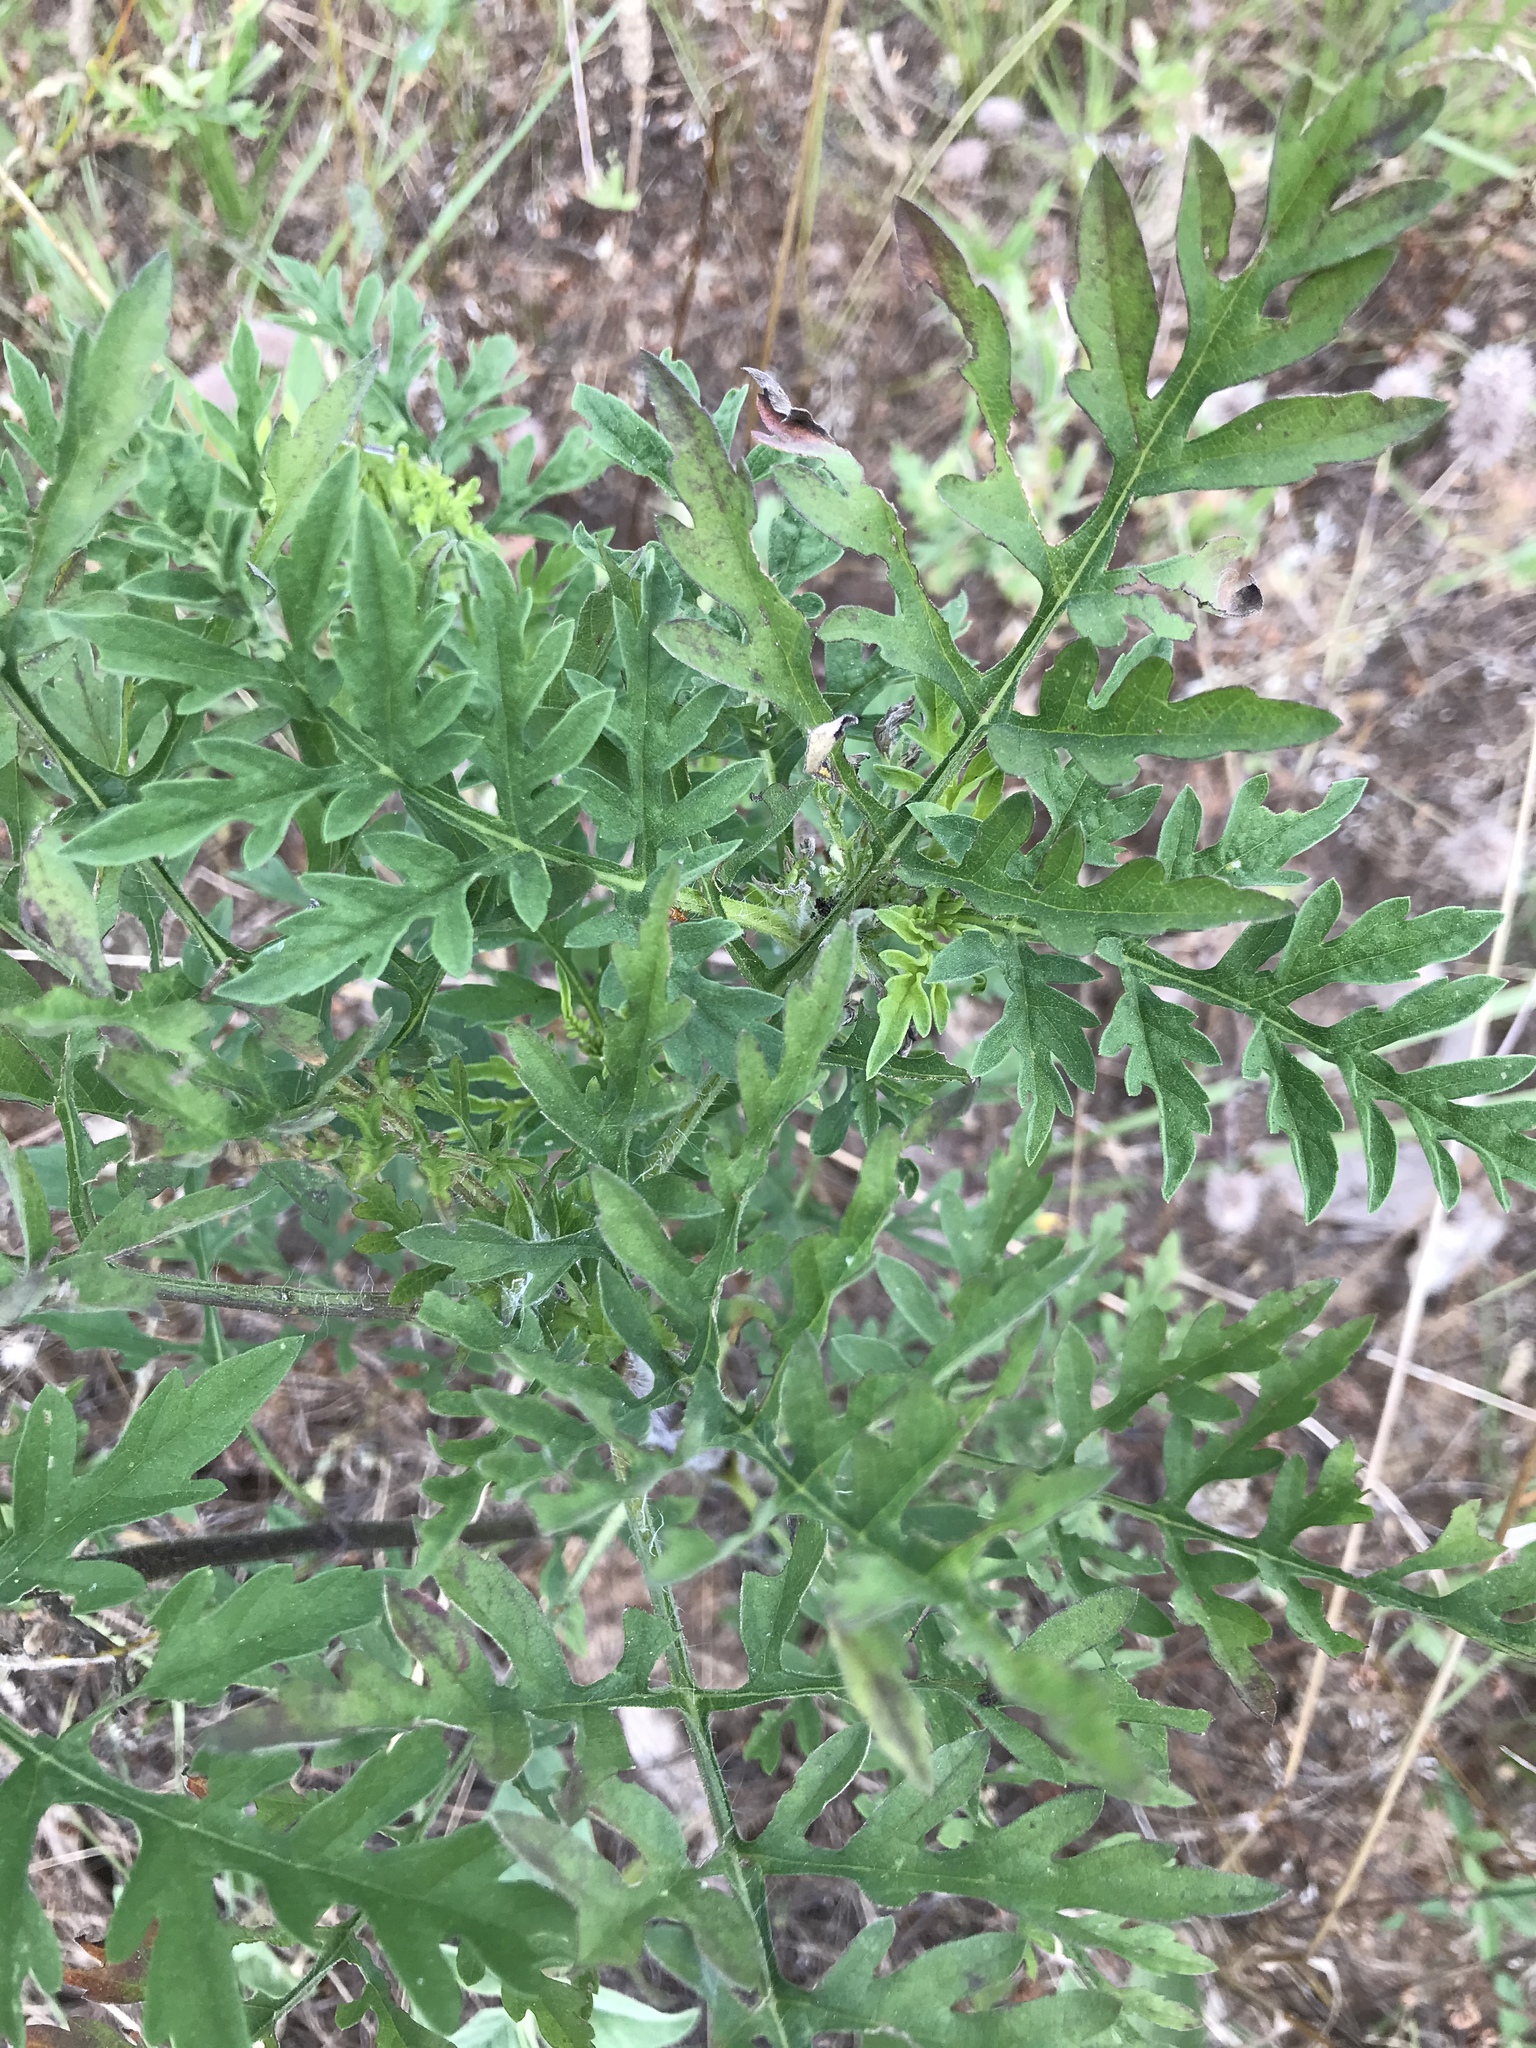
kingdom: Plantae
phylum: Tracheophyta
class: Magnoliopsida
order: Asterales
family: Asteraceae
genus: Ambrosia
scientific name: Ambrosia artemisiifolia
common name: Annual ragweed
